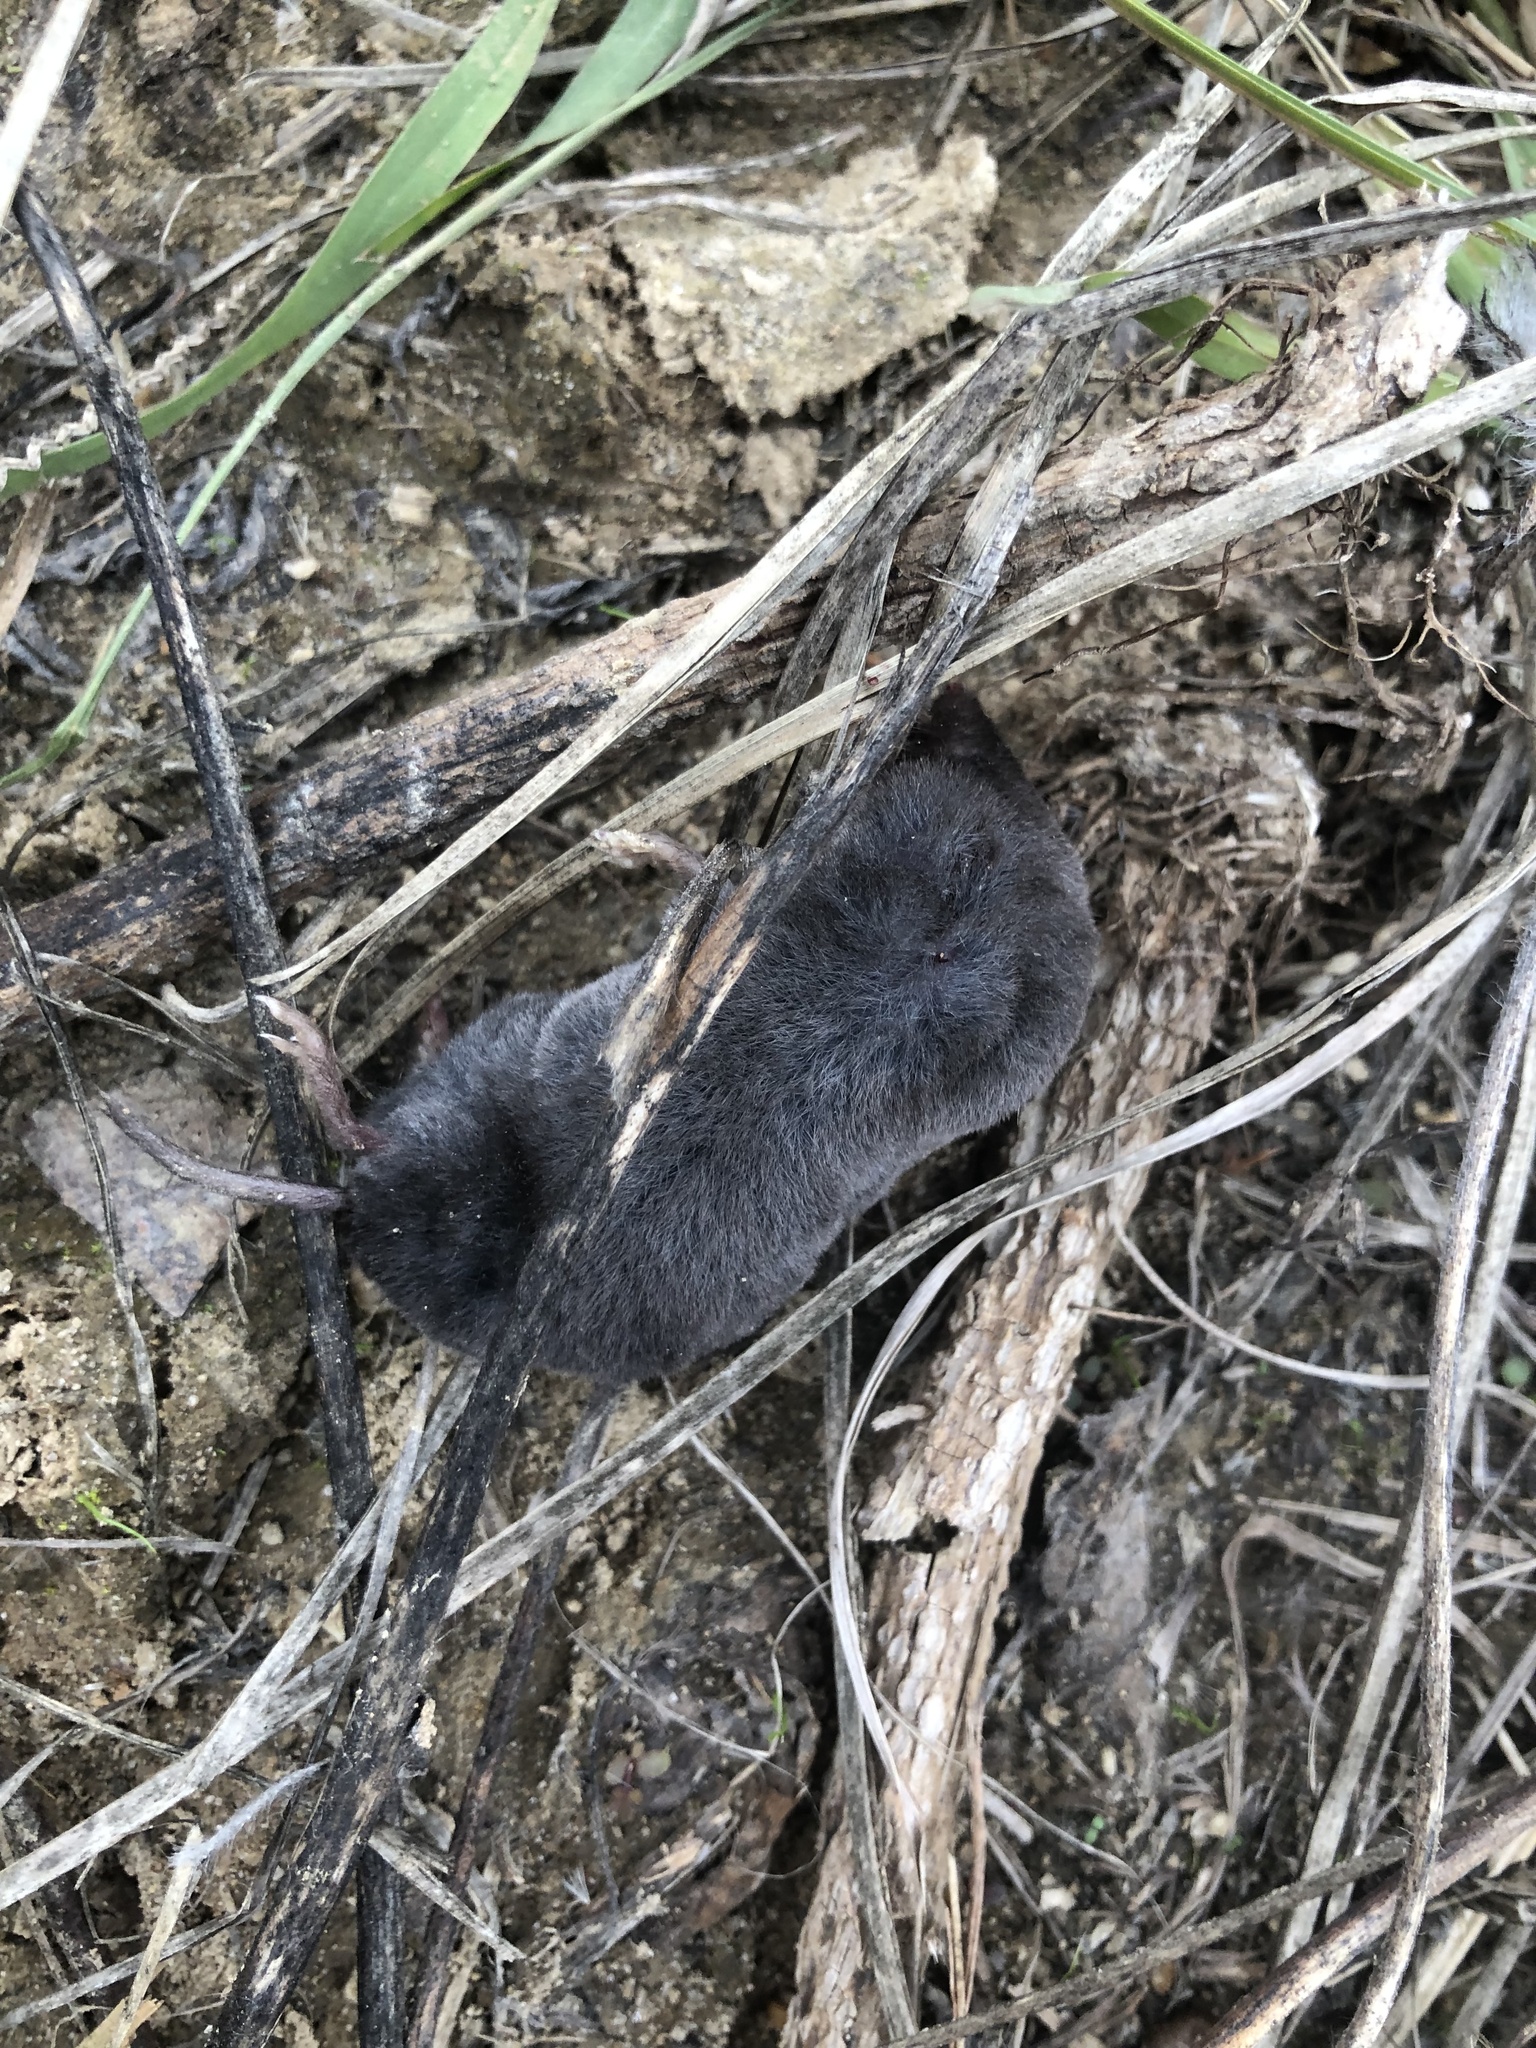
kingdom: Animalia
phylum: Chordata
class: Mammalia
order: Soricomorpha
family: Soricidae
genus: Blarina
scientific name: Blarina carolinensis
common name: Southern short-tailed shrew
